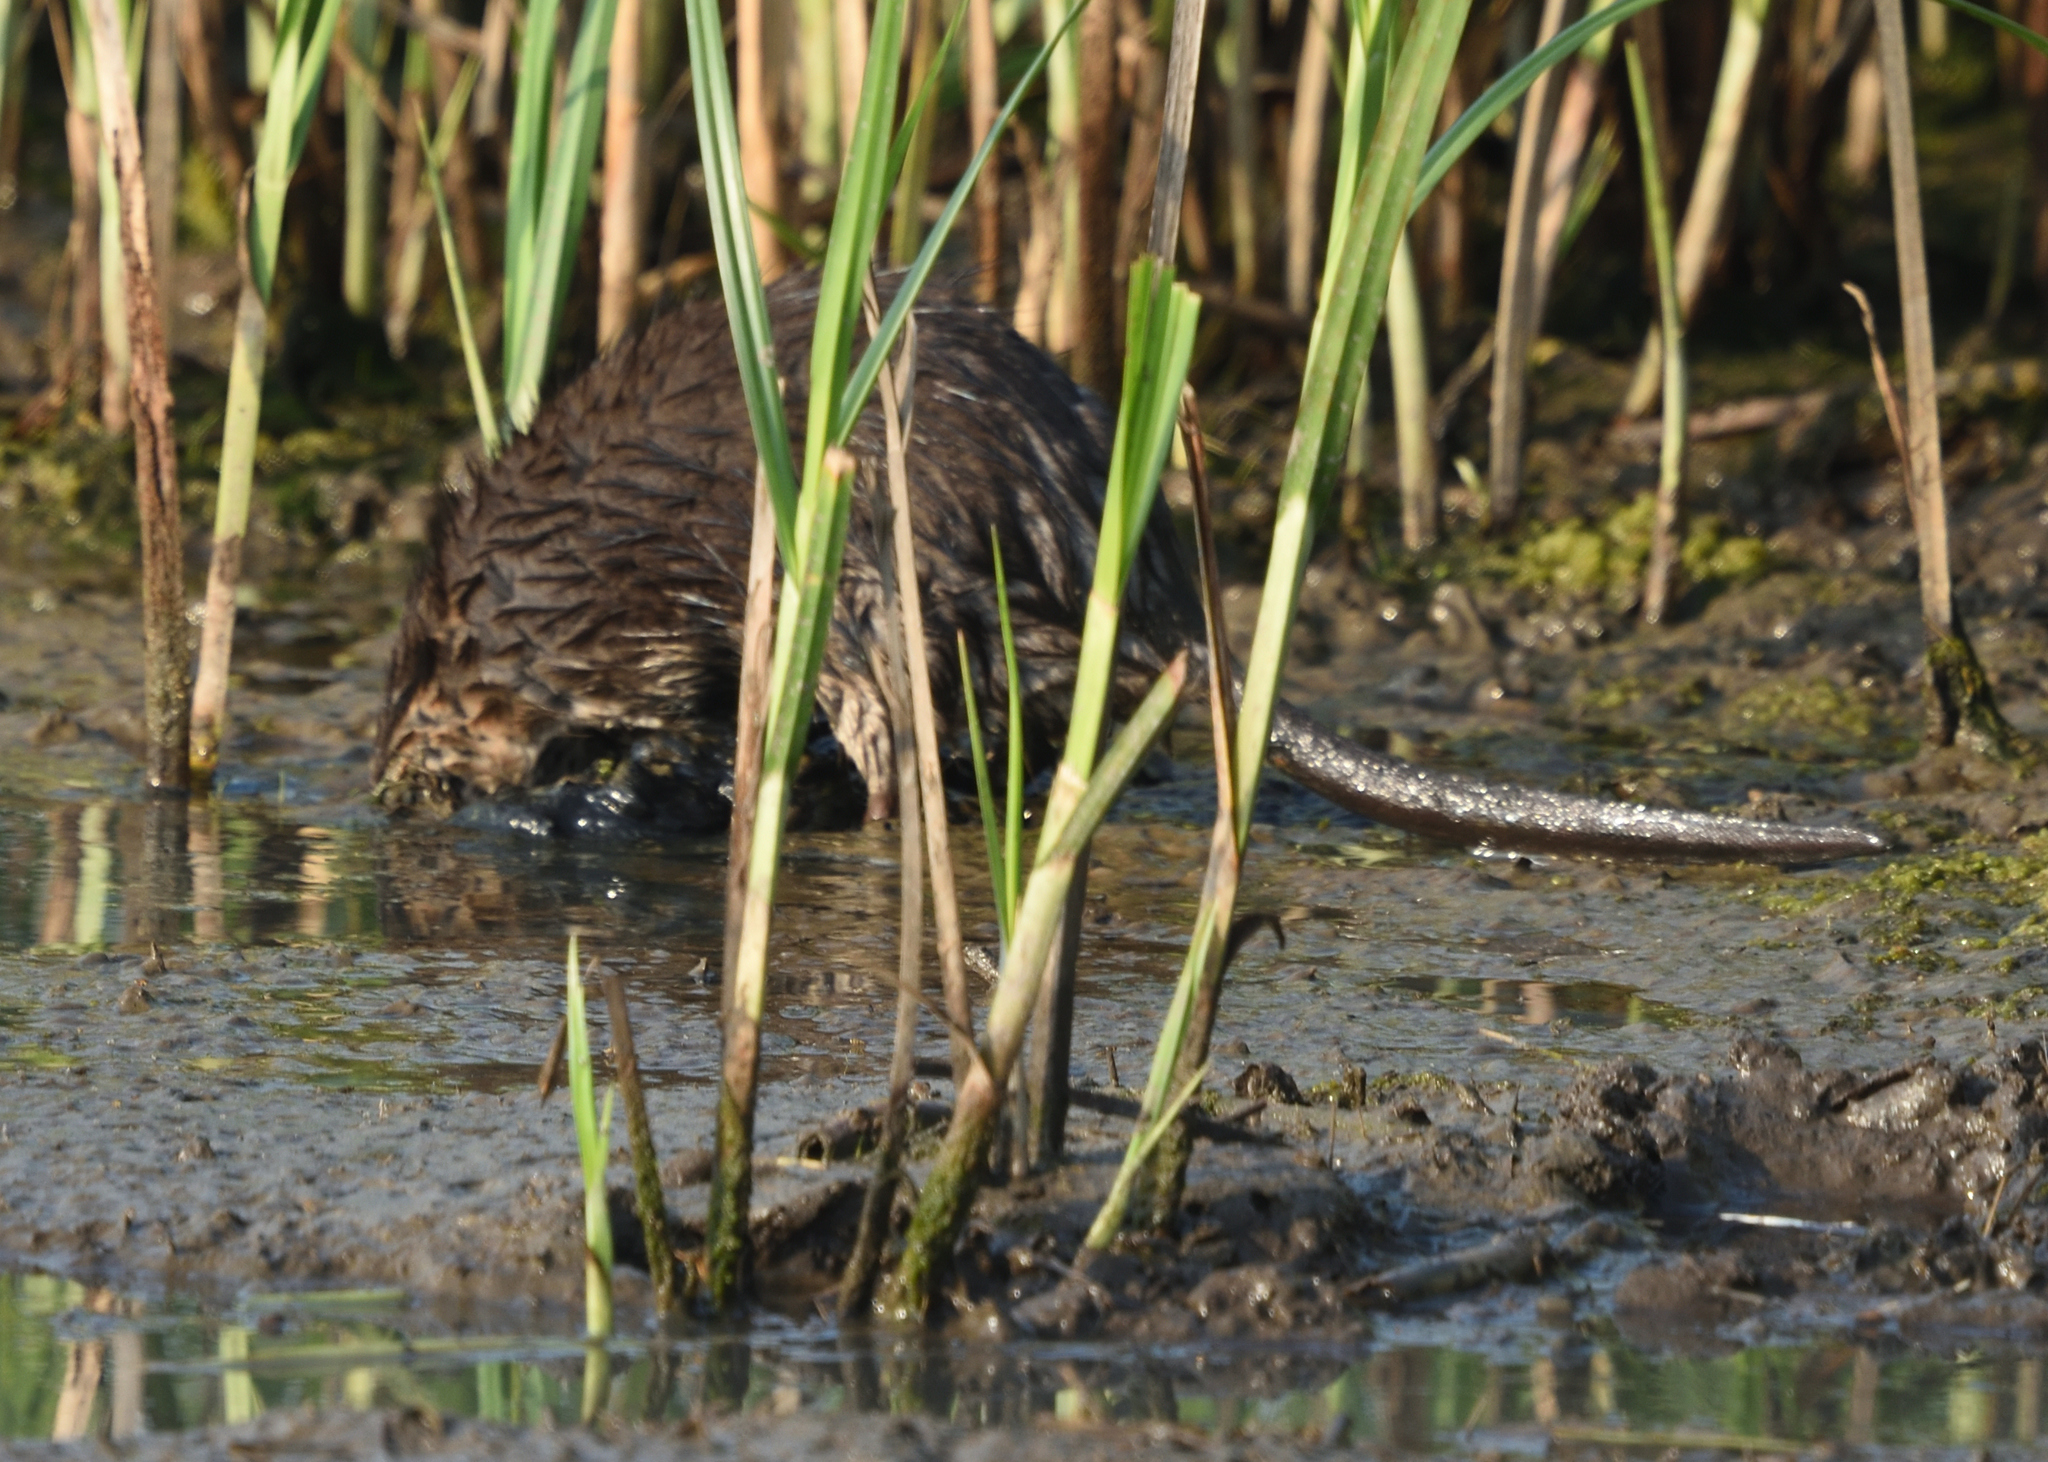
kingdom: Animalia
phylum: Chordata
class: Mammalia
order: Rodentia
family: Cricetidae
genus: Ondatra
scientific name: Ondatra zibethicus
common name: Muskrat
